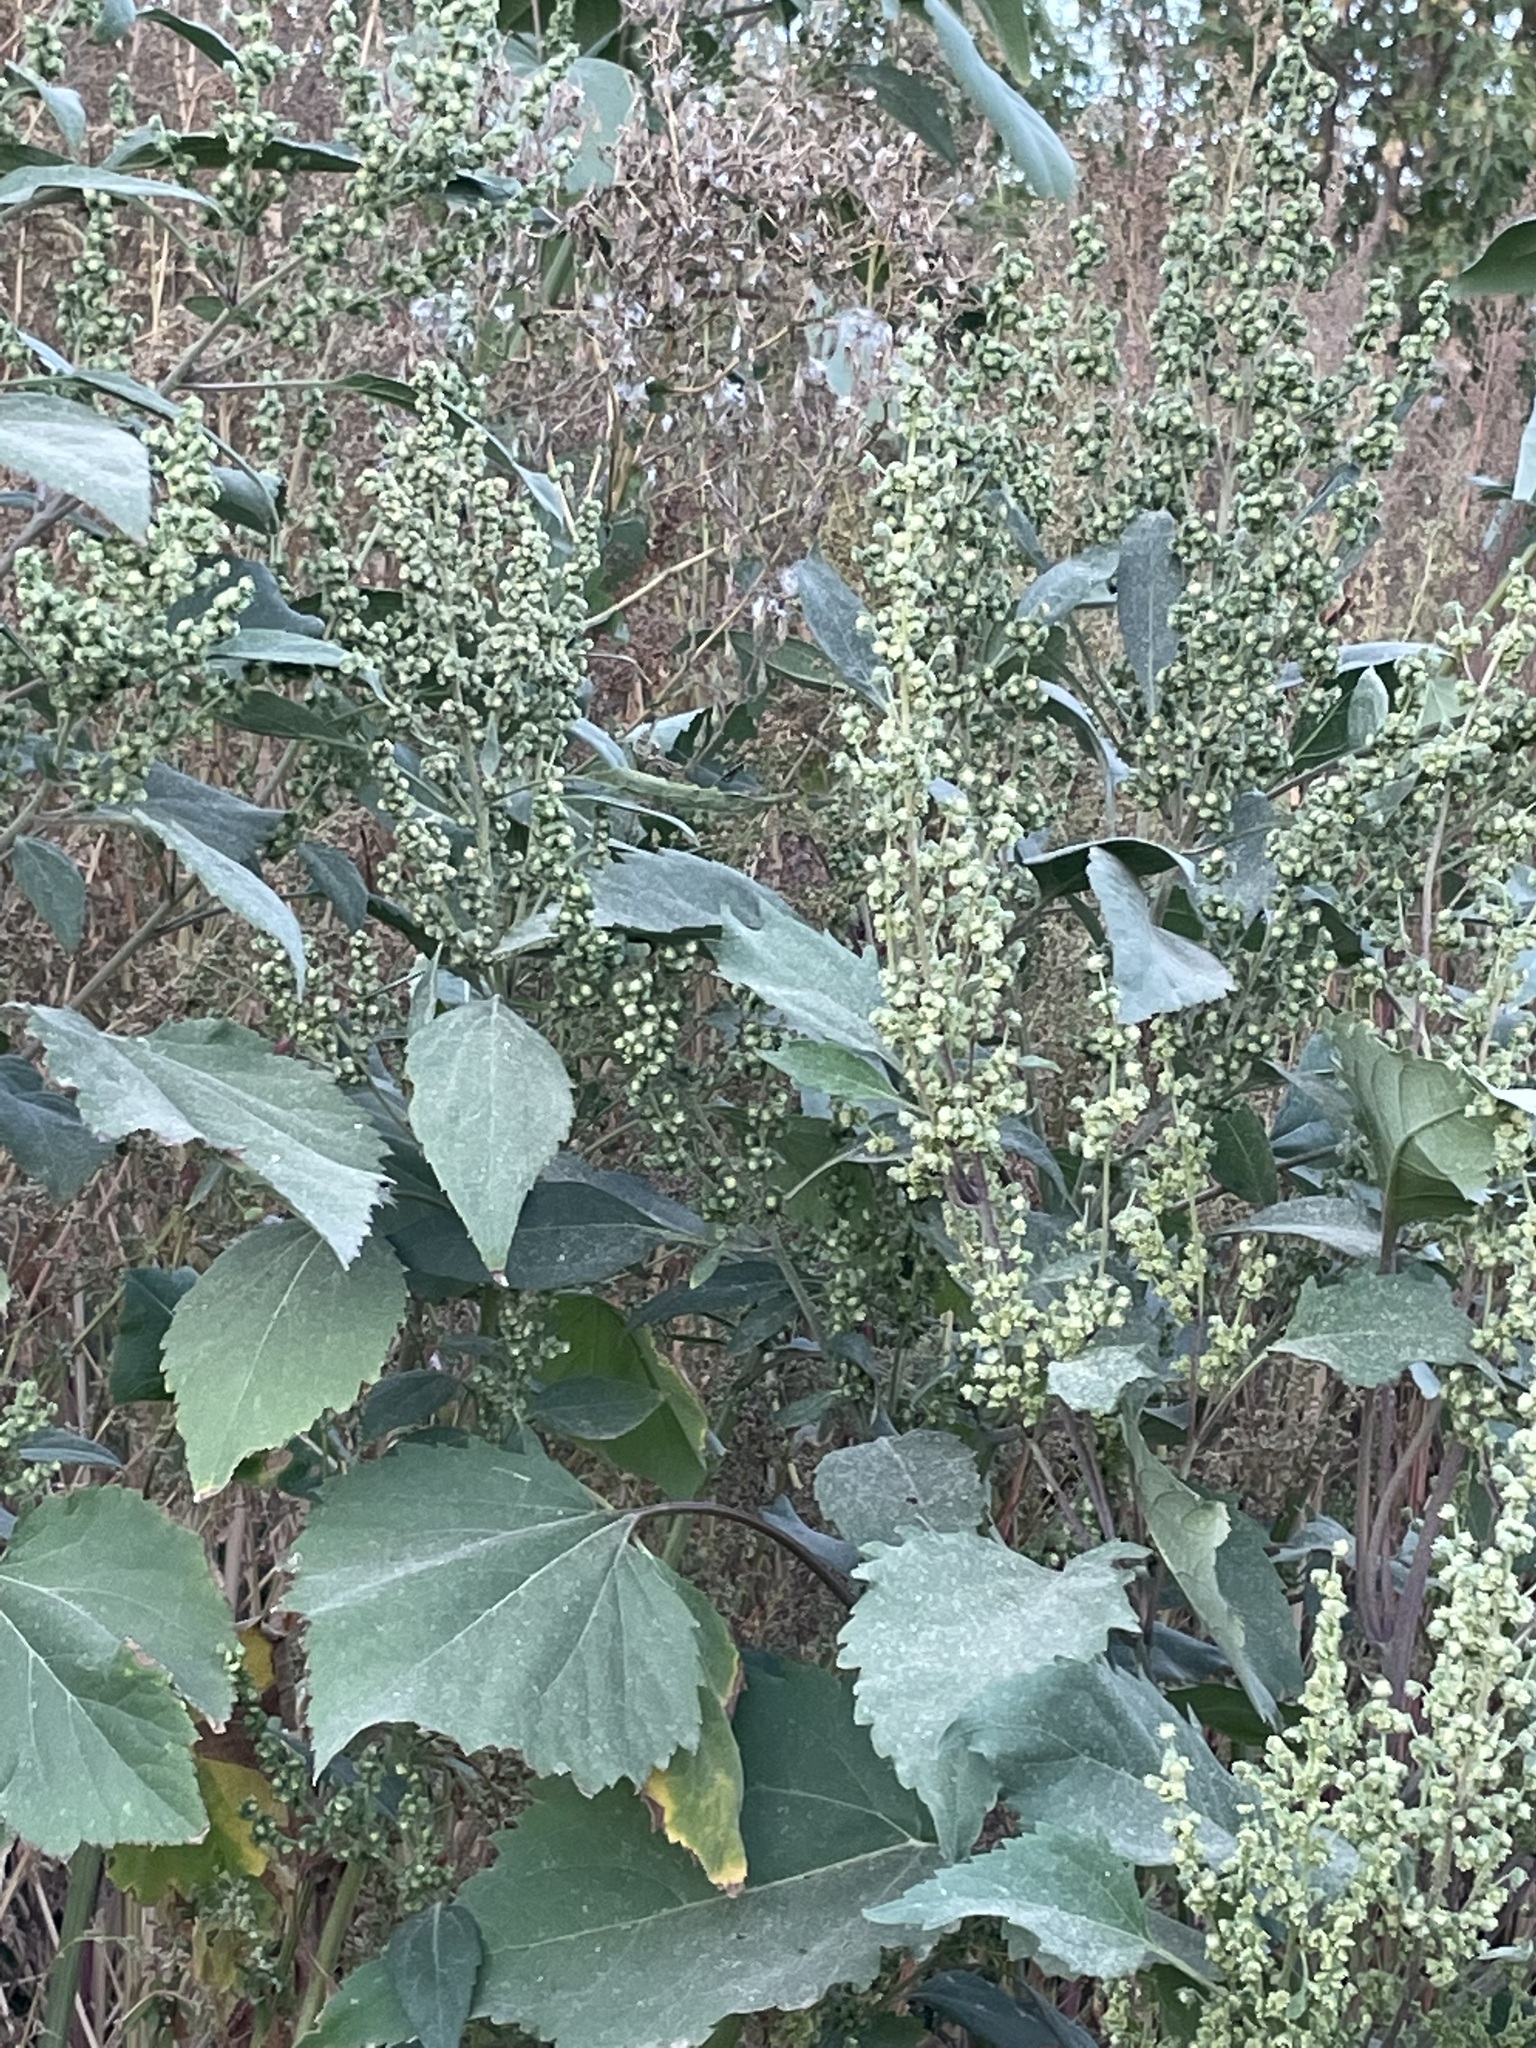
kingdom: Plantae
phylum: Tracheophyta
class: Magnoliopsida
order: Asterales
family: Asteraceae
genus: Cyclachaena
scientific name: Cyclachaena xanthiifolia
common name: Giant sumpweed
